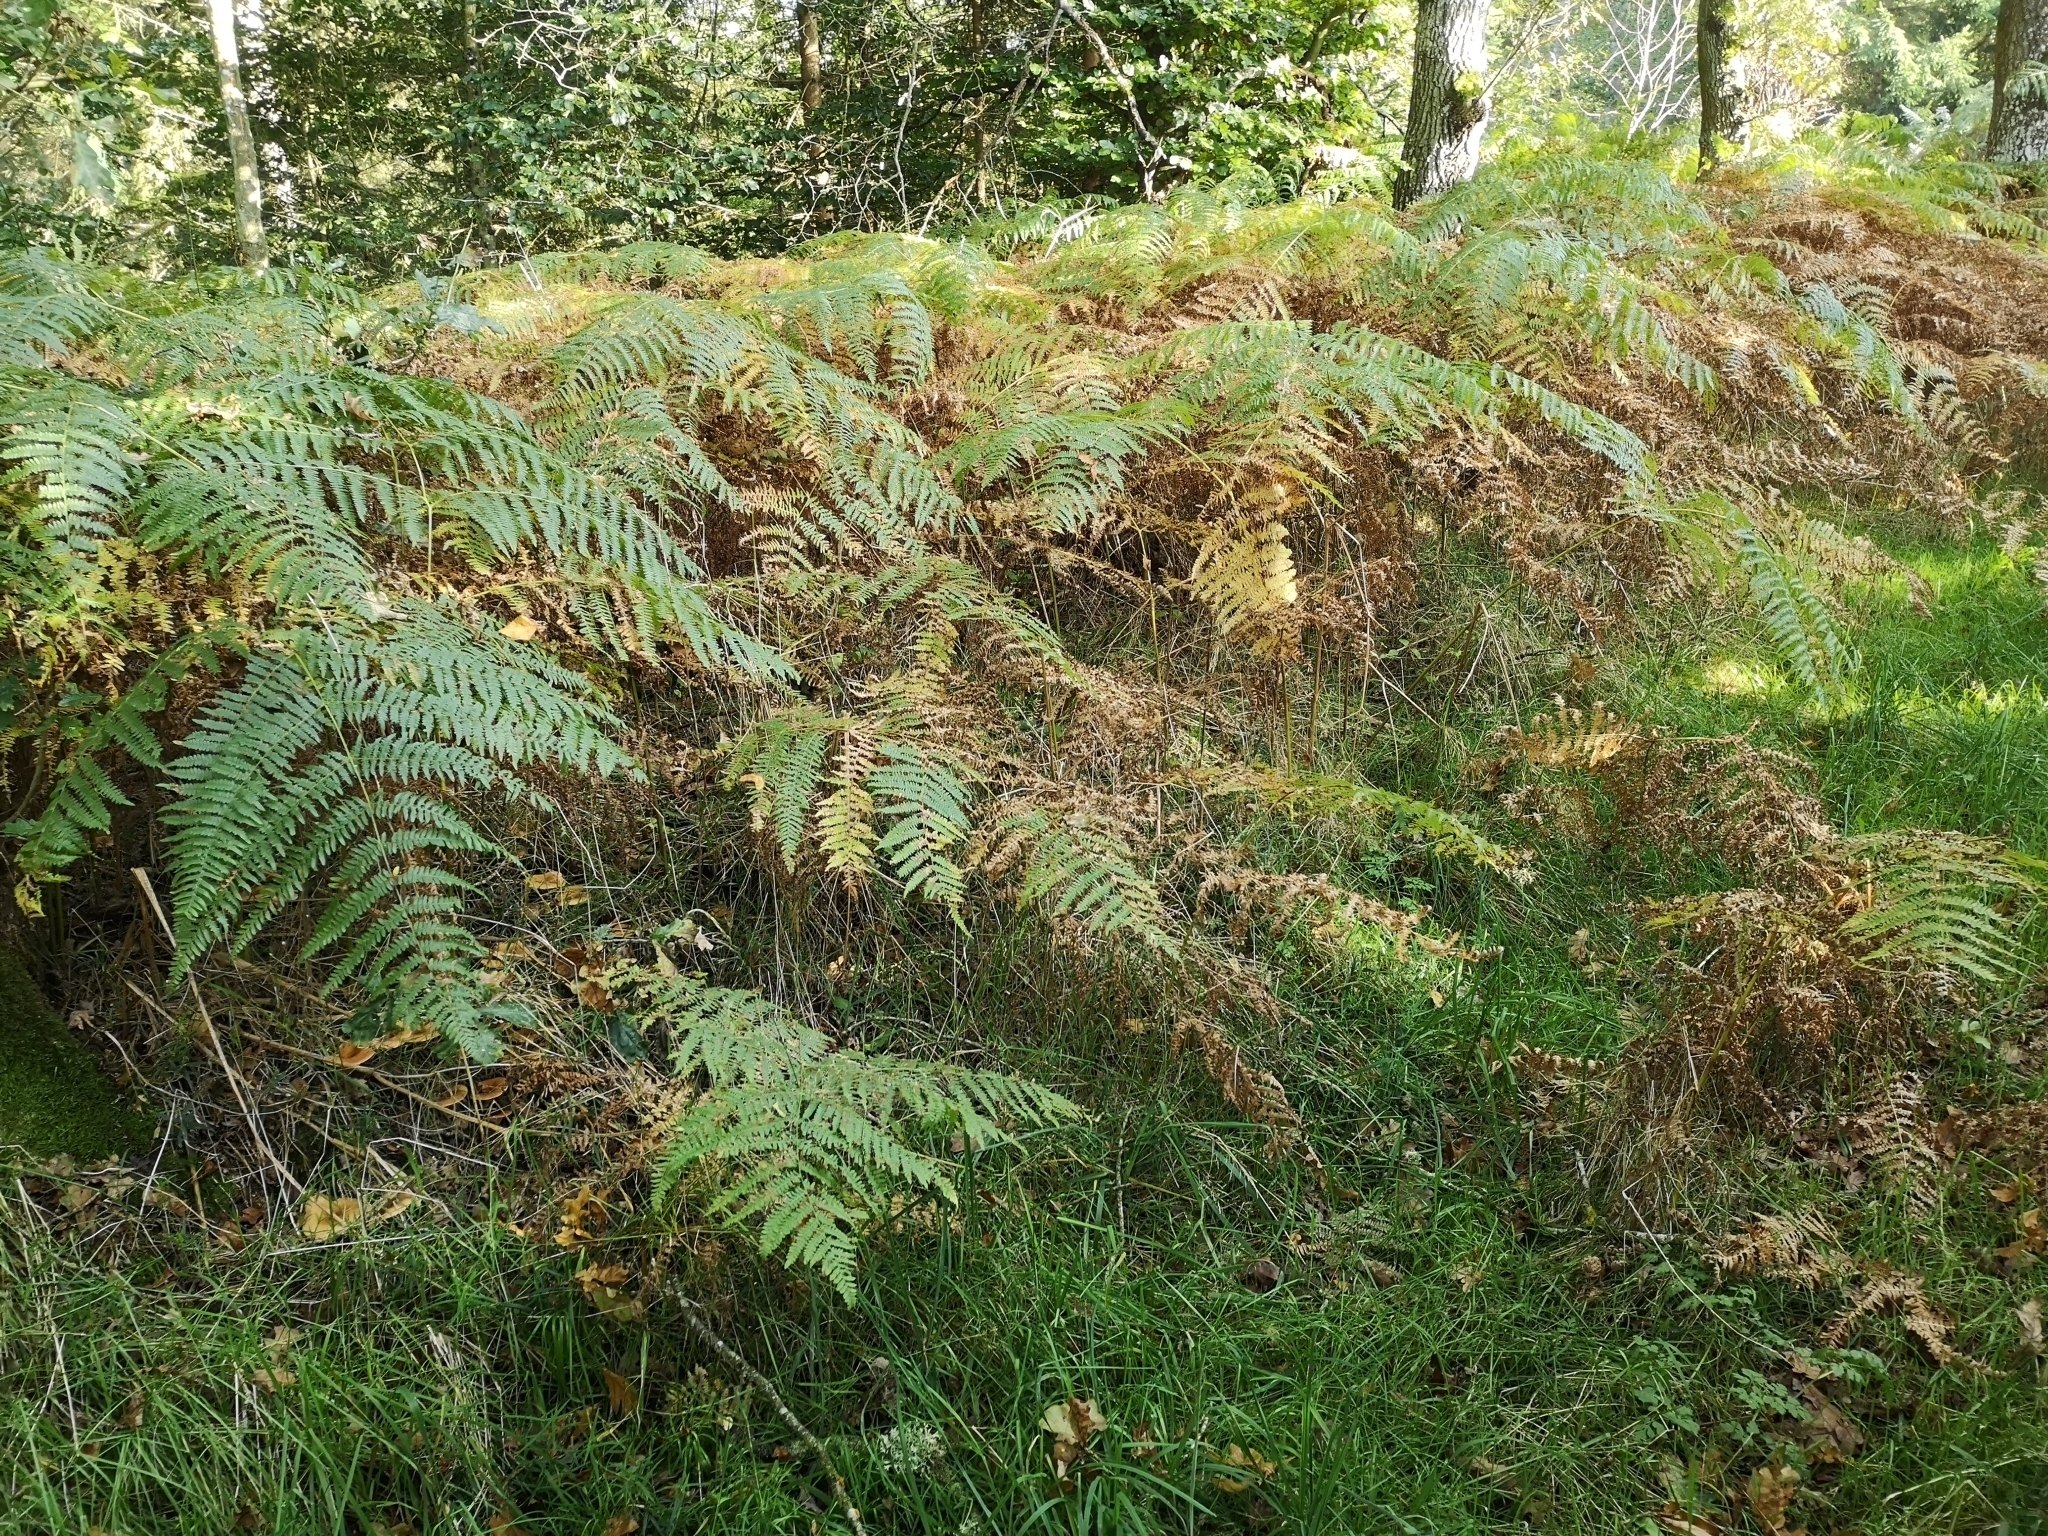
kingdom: Plantae
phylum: Tracheophyta
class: Polypodiopsida
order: Polypodiales
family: Dennstaedtiaceae
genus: Pteridium
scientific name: Pteridium aquilinum
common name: Bracken
